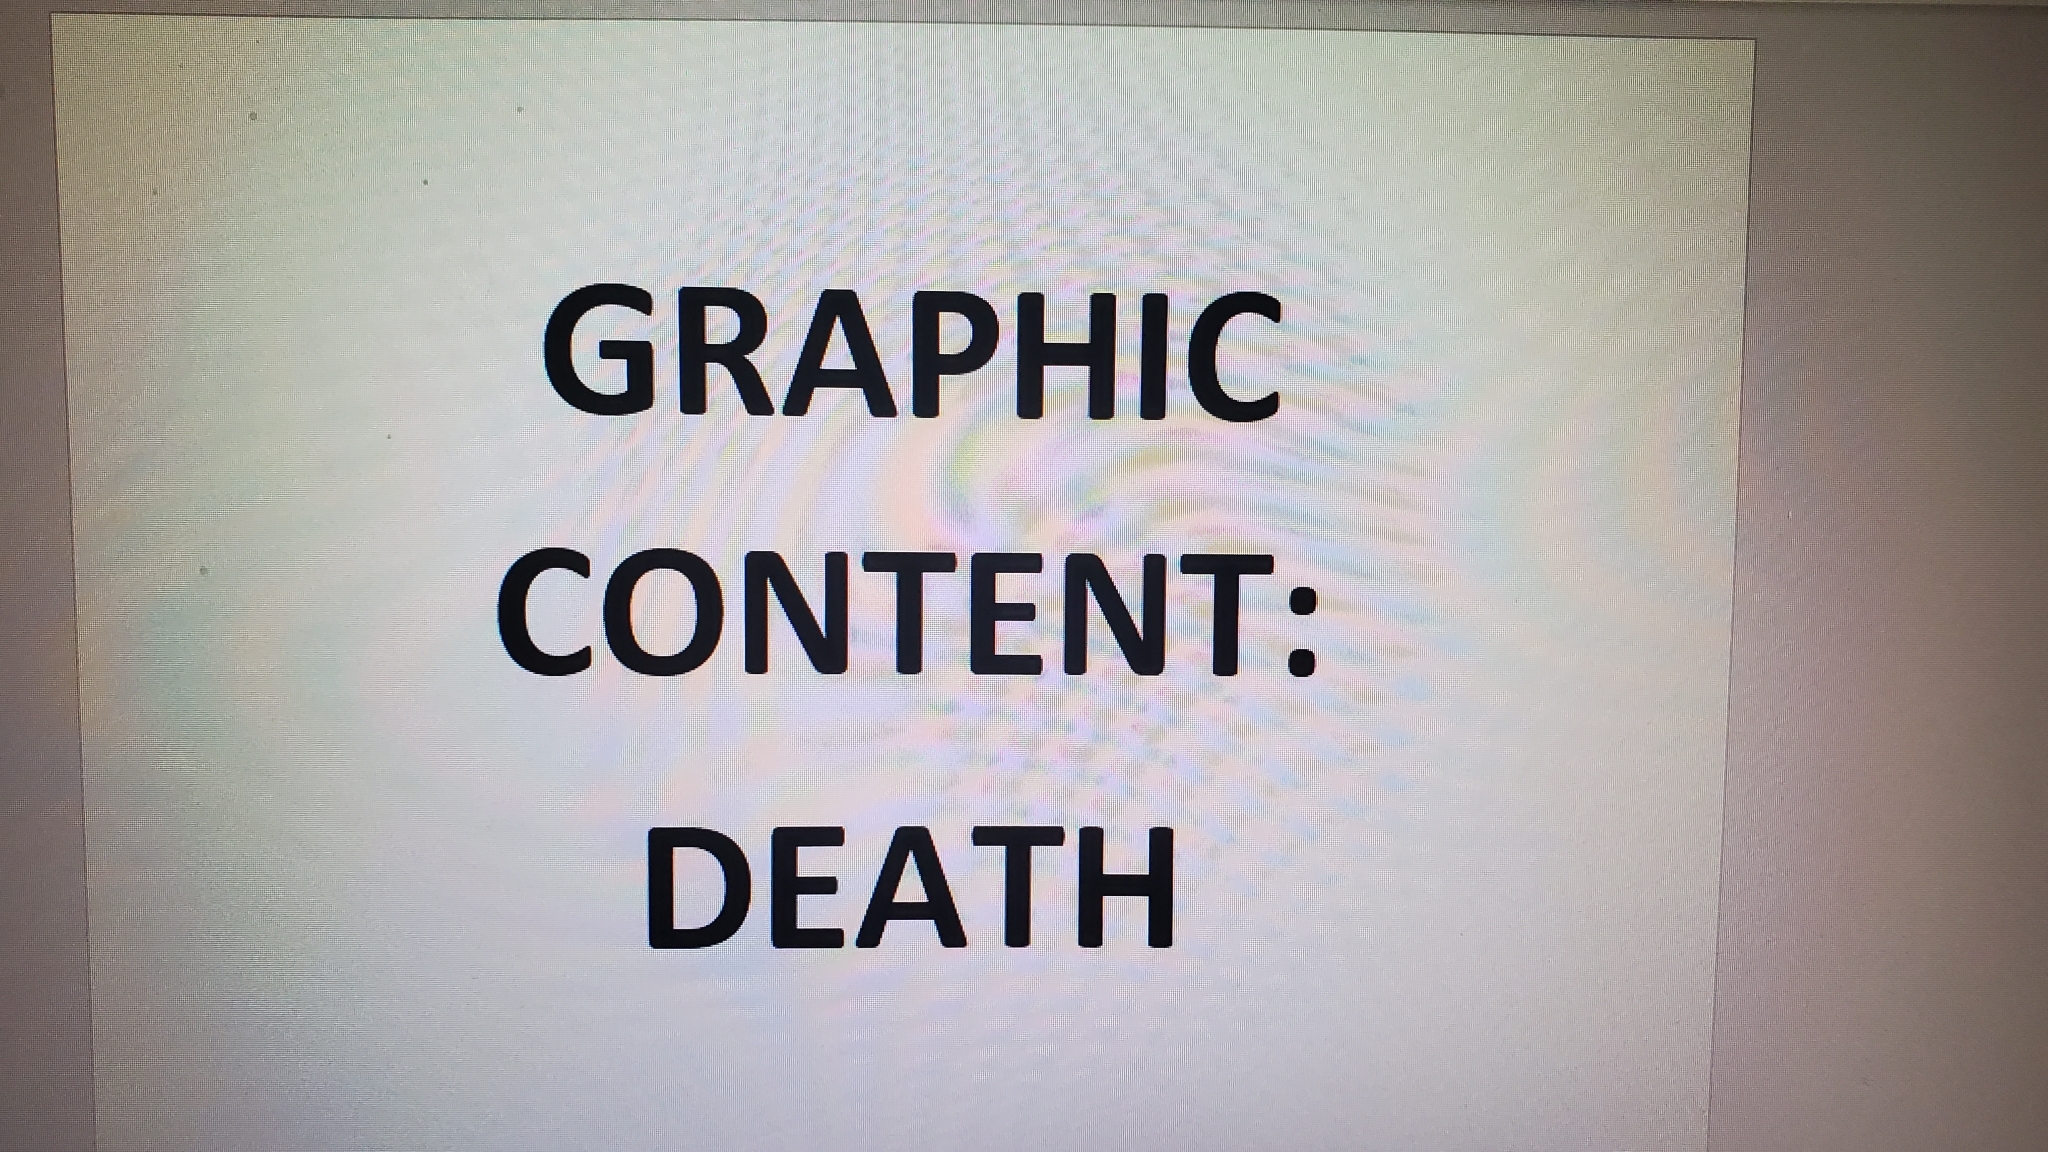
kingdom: Animalia
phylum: Chordata
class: Mammalia
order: Rodentia
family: Sciuridae
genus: Sciurus
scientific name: Sciurus niger
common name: Fox squirrel
